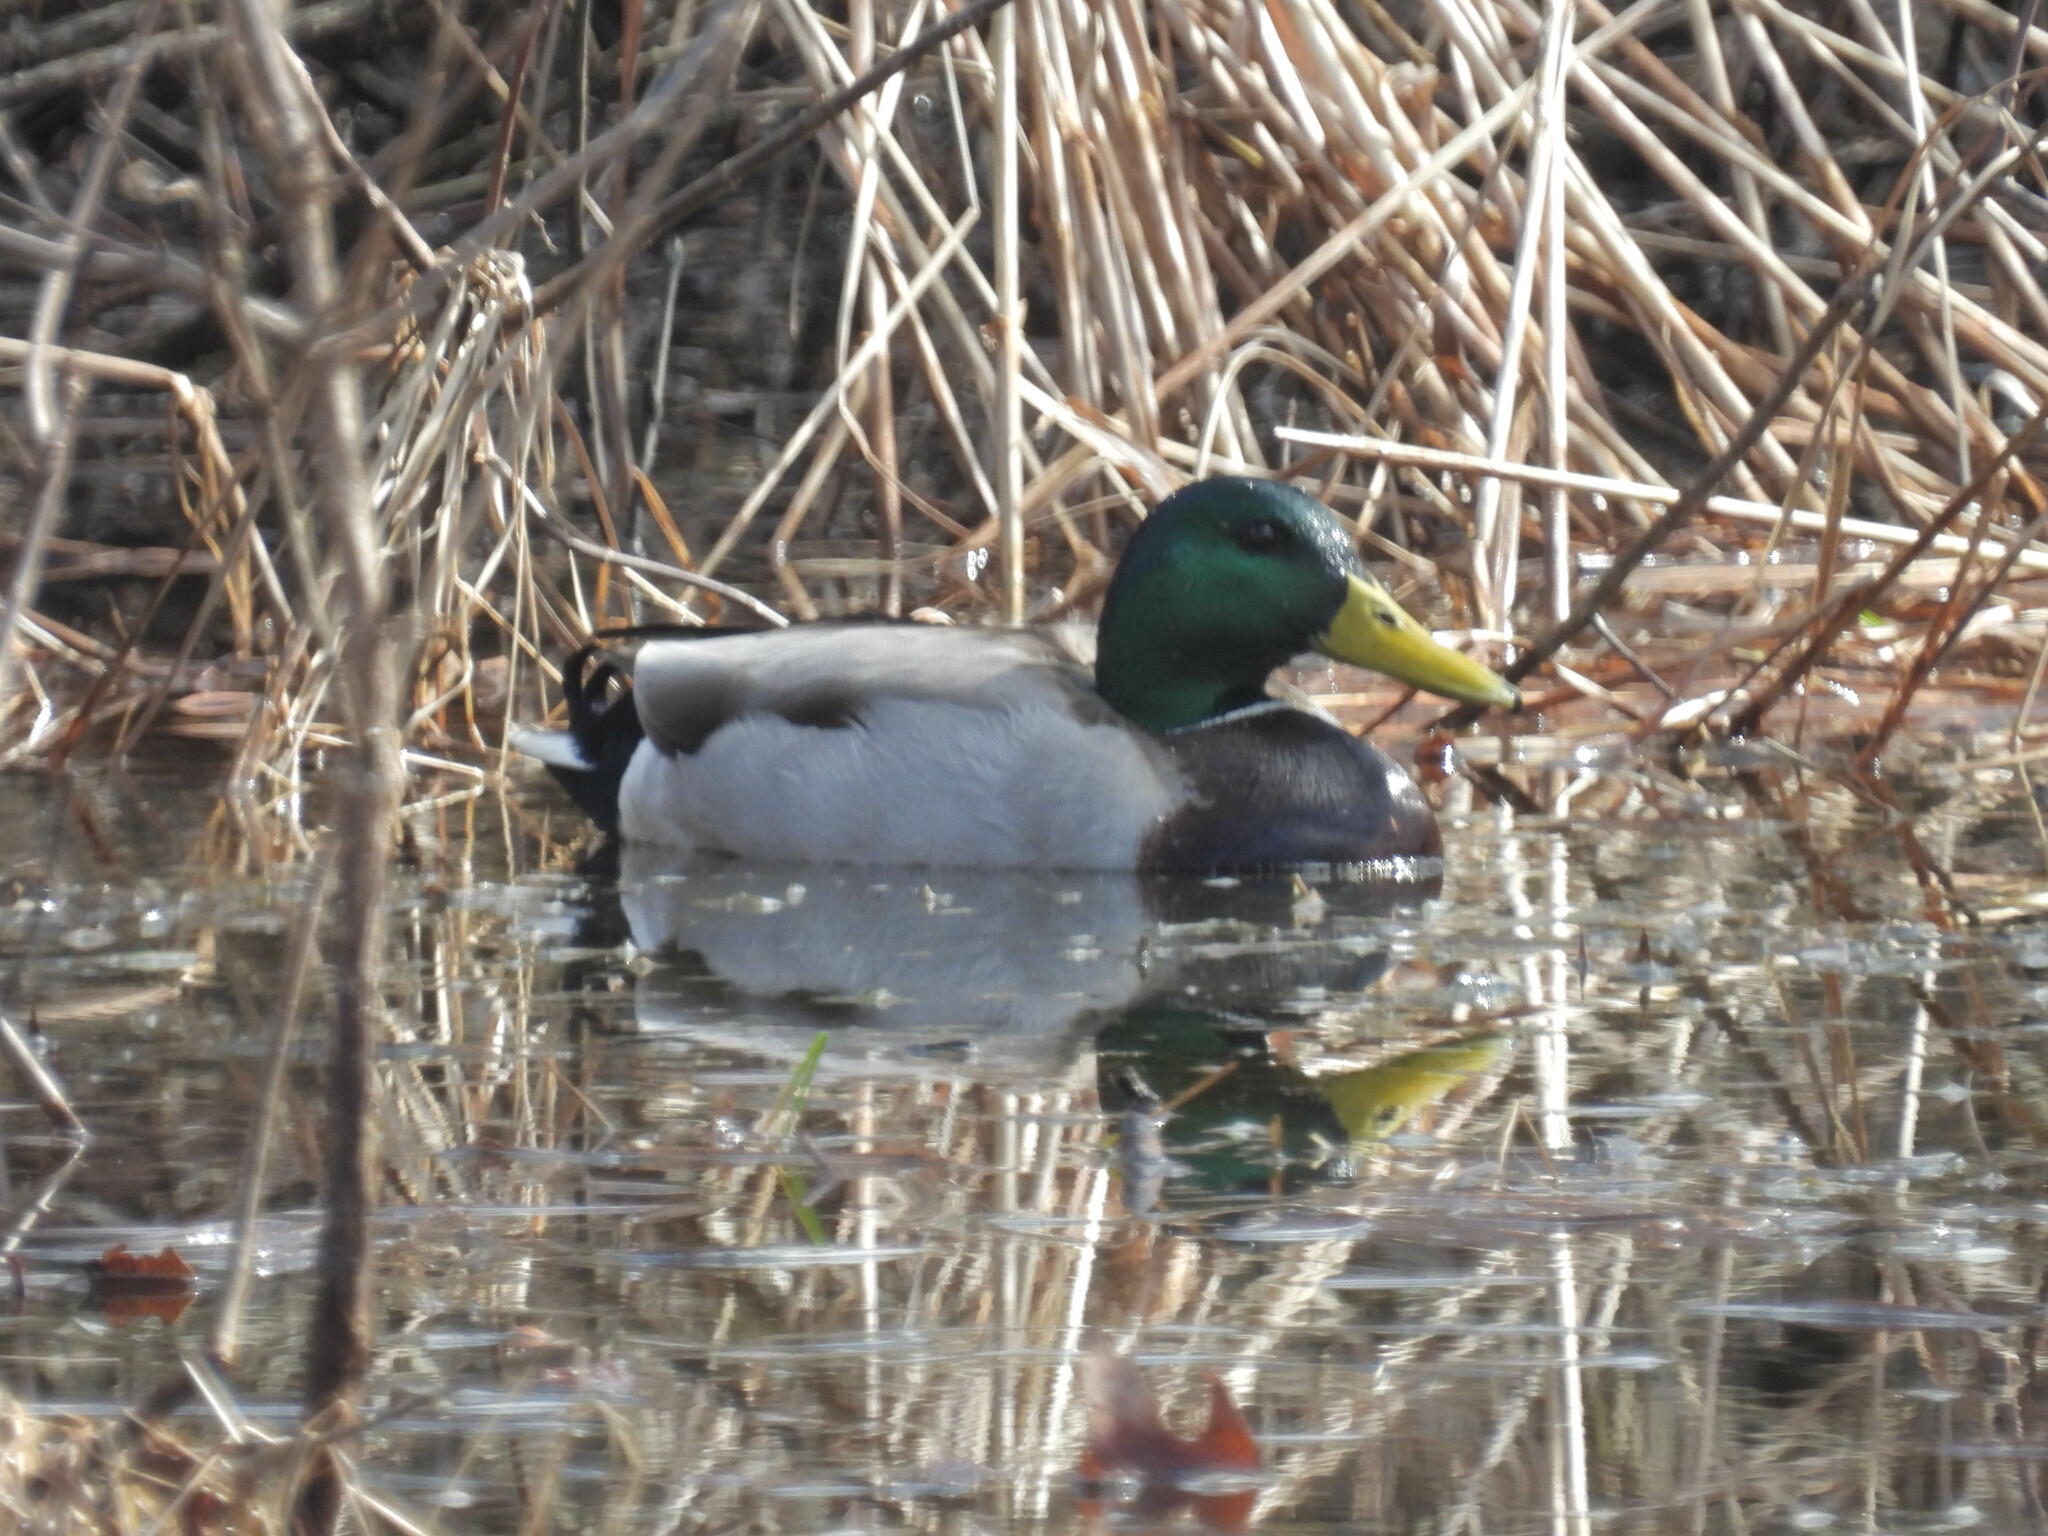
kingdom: Animalia
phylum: Chordata
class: Aves
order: Anseriformes
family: Anatidae
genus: Anas
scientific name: Anas platyrhynchos
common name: Mallard
